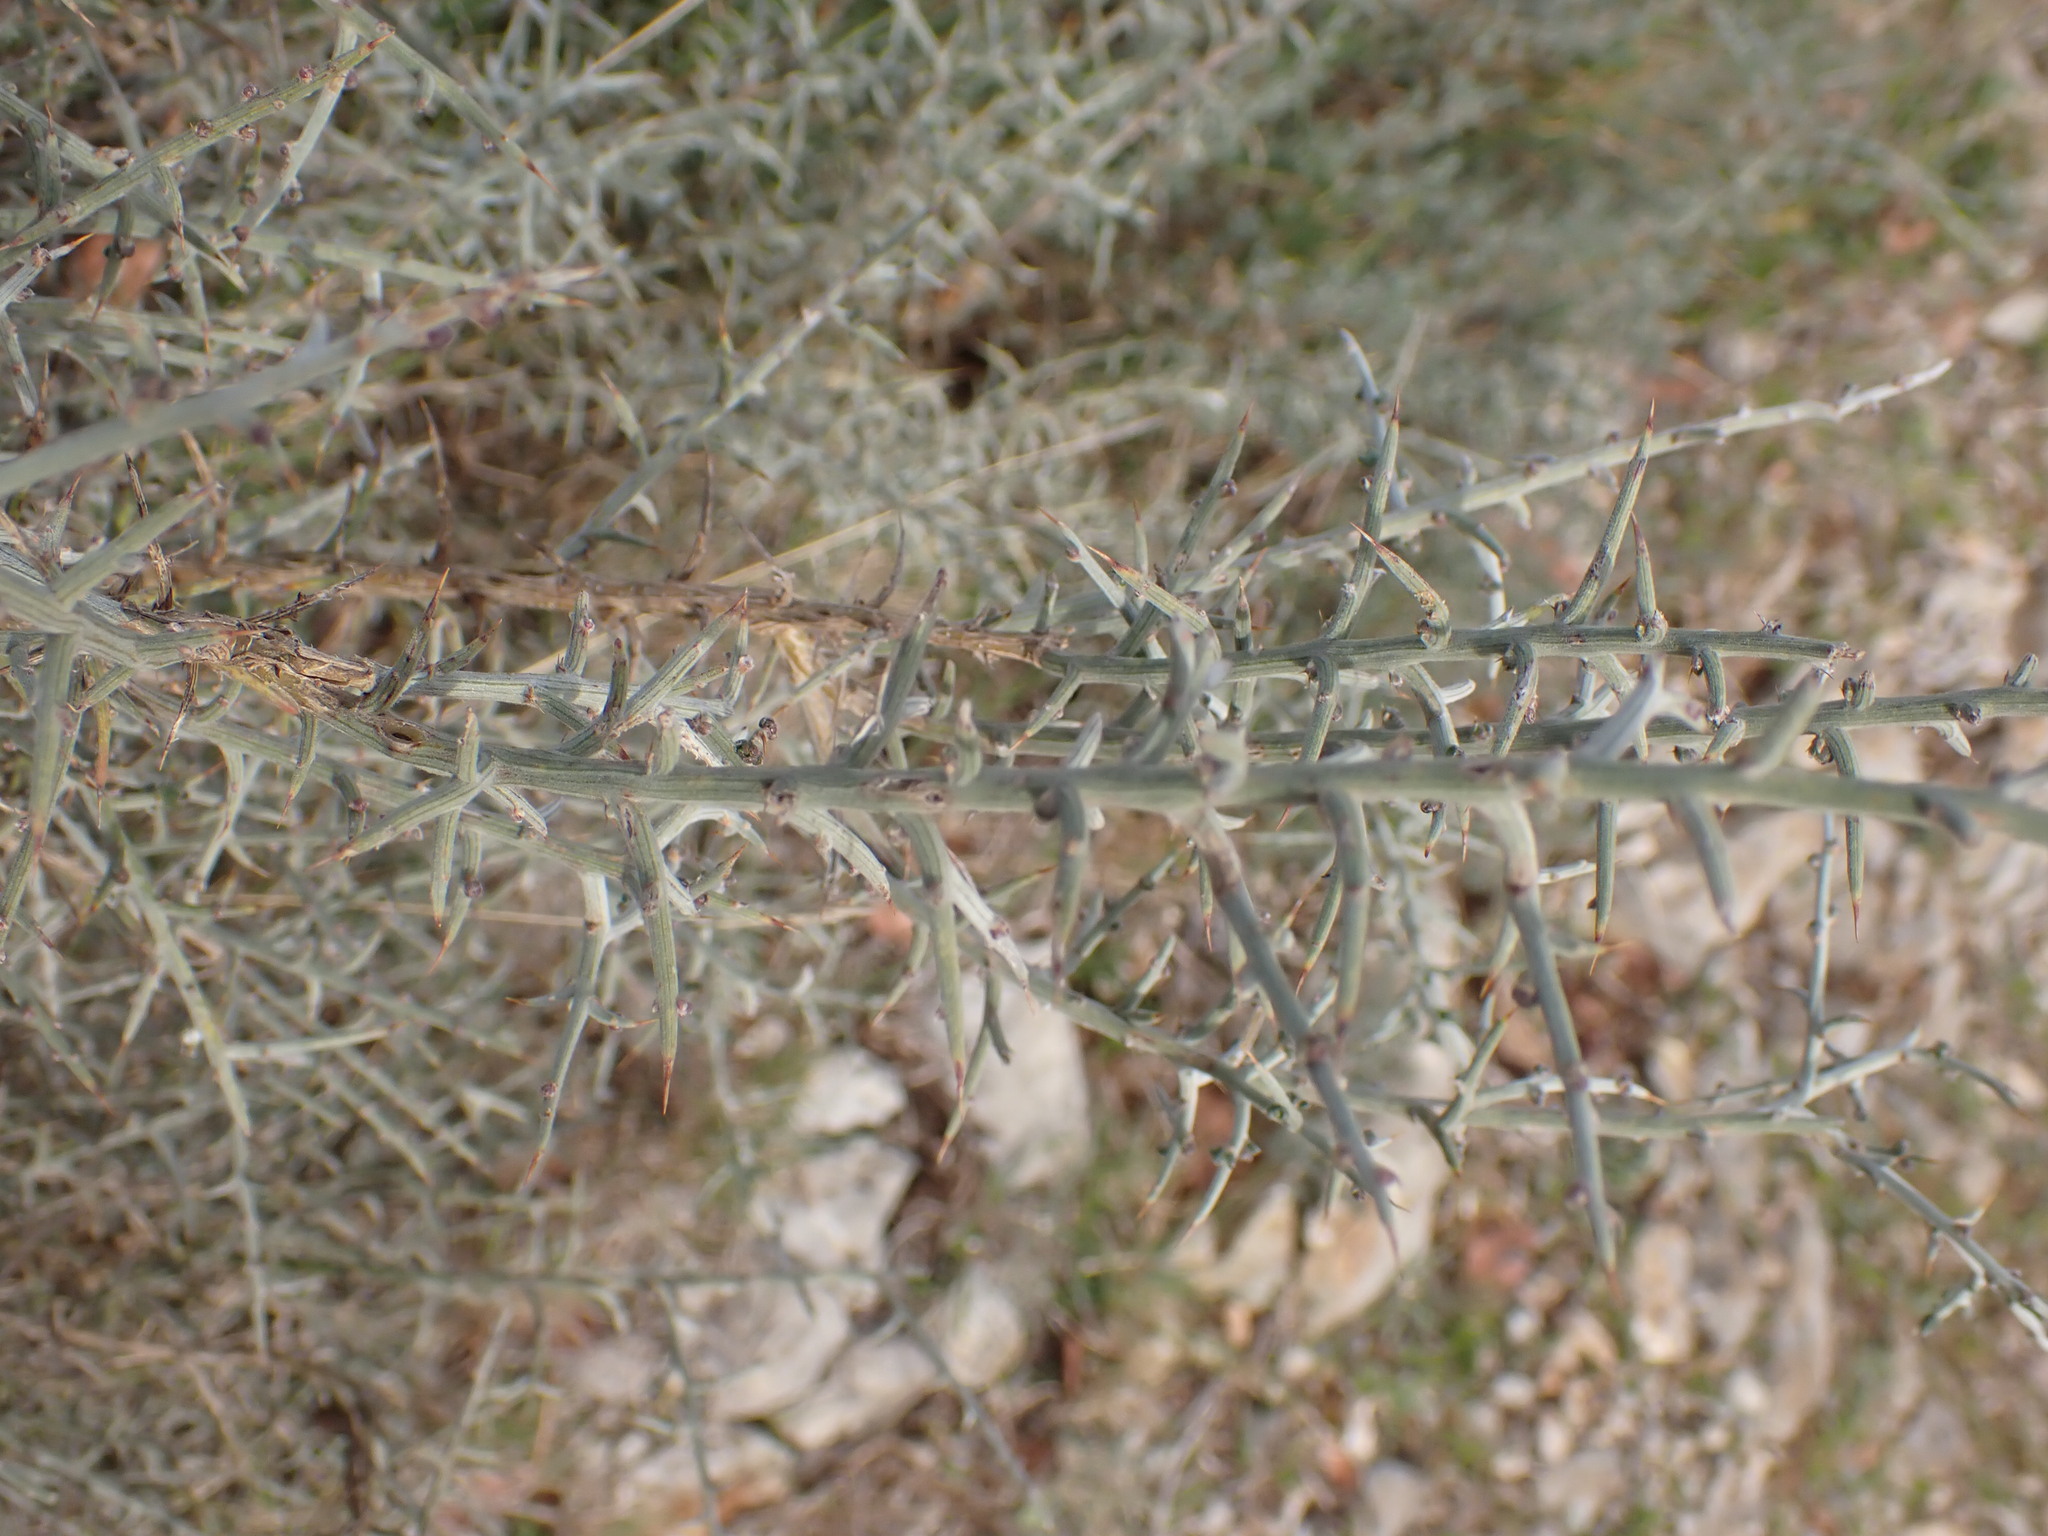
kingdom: Plantae
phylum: Tracheophyta
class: Magnoliopsida
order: Fabales
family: Fabaceae
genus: Genista
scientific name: Genista scorpius
